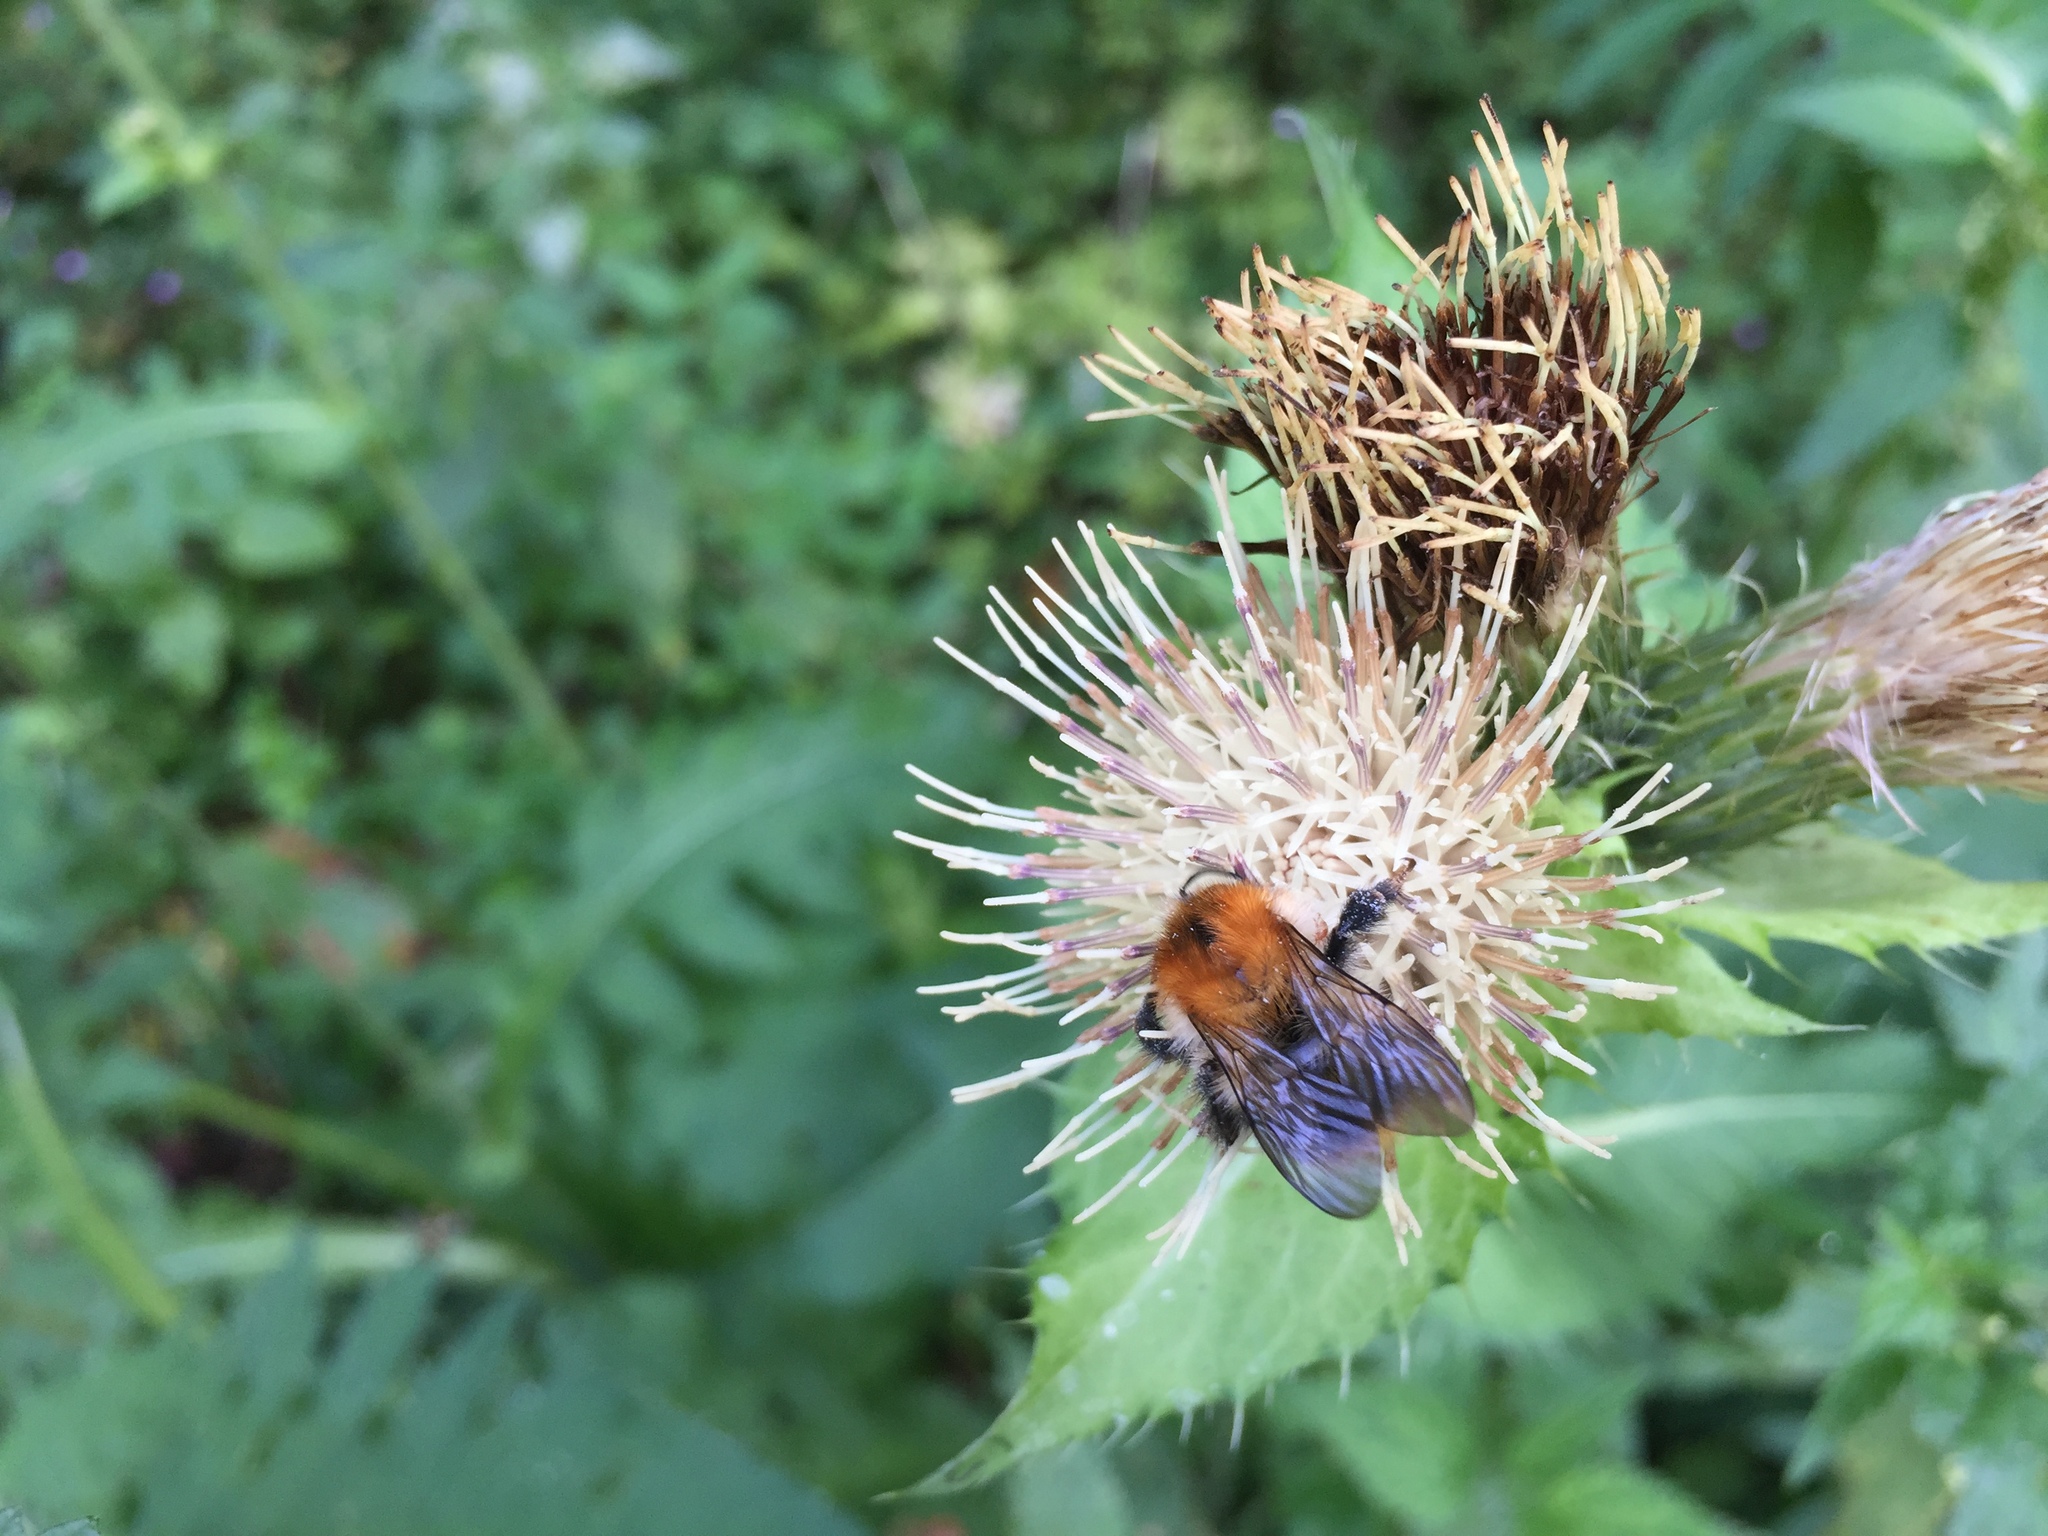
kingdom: Animalia
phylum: Arthropoda
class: Insecta
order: Hymenoptera
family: Apidae
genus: Bombus
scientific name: Bombus pascuorum
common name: Common carder bee
